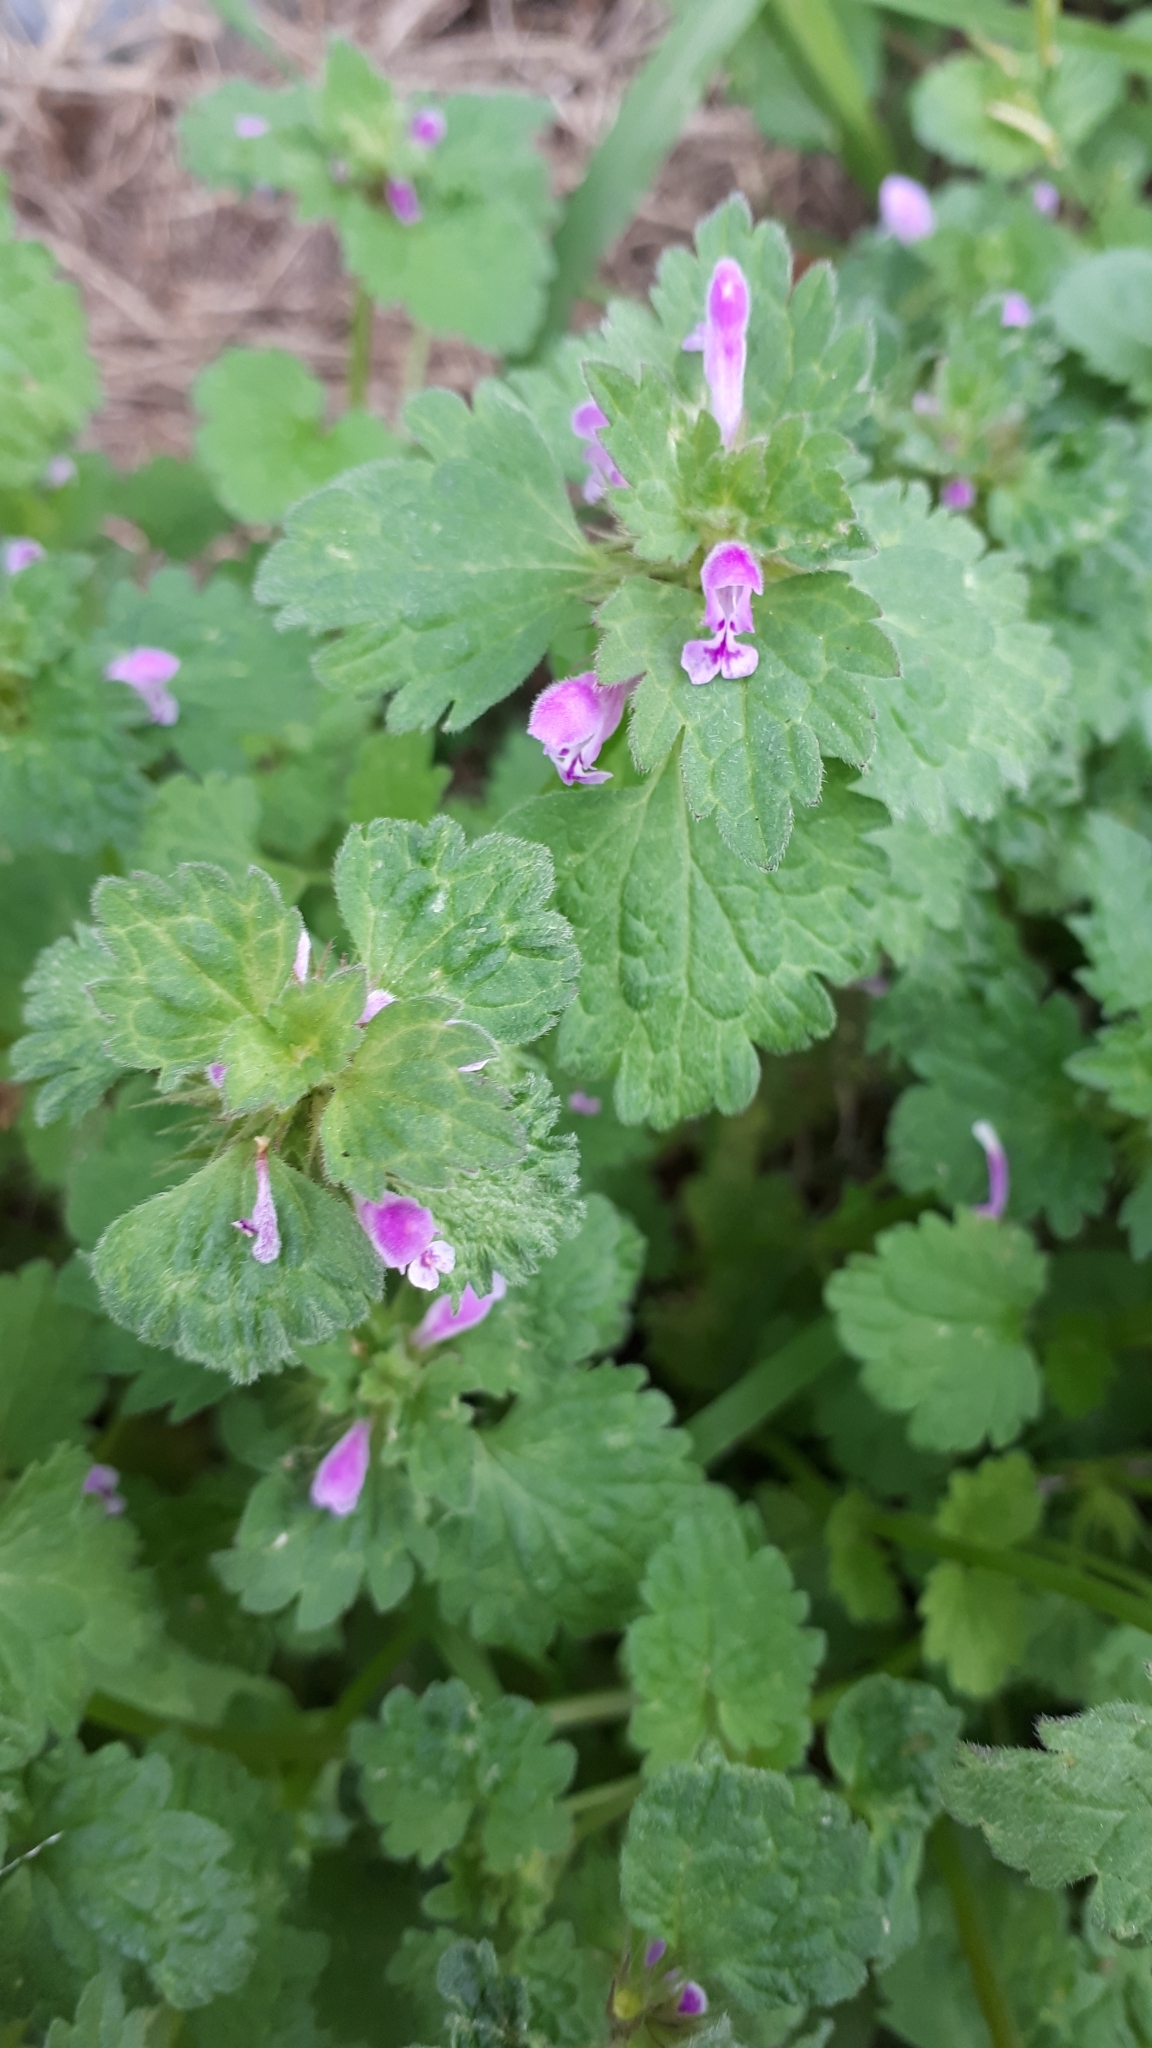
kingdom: Plantae
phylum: Tracheophyta
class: Magnoliopsida
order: Lamiales
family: Lamiaceae
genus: Lamium
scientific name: Lamium purpureum
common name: Red dead-nettle
